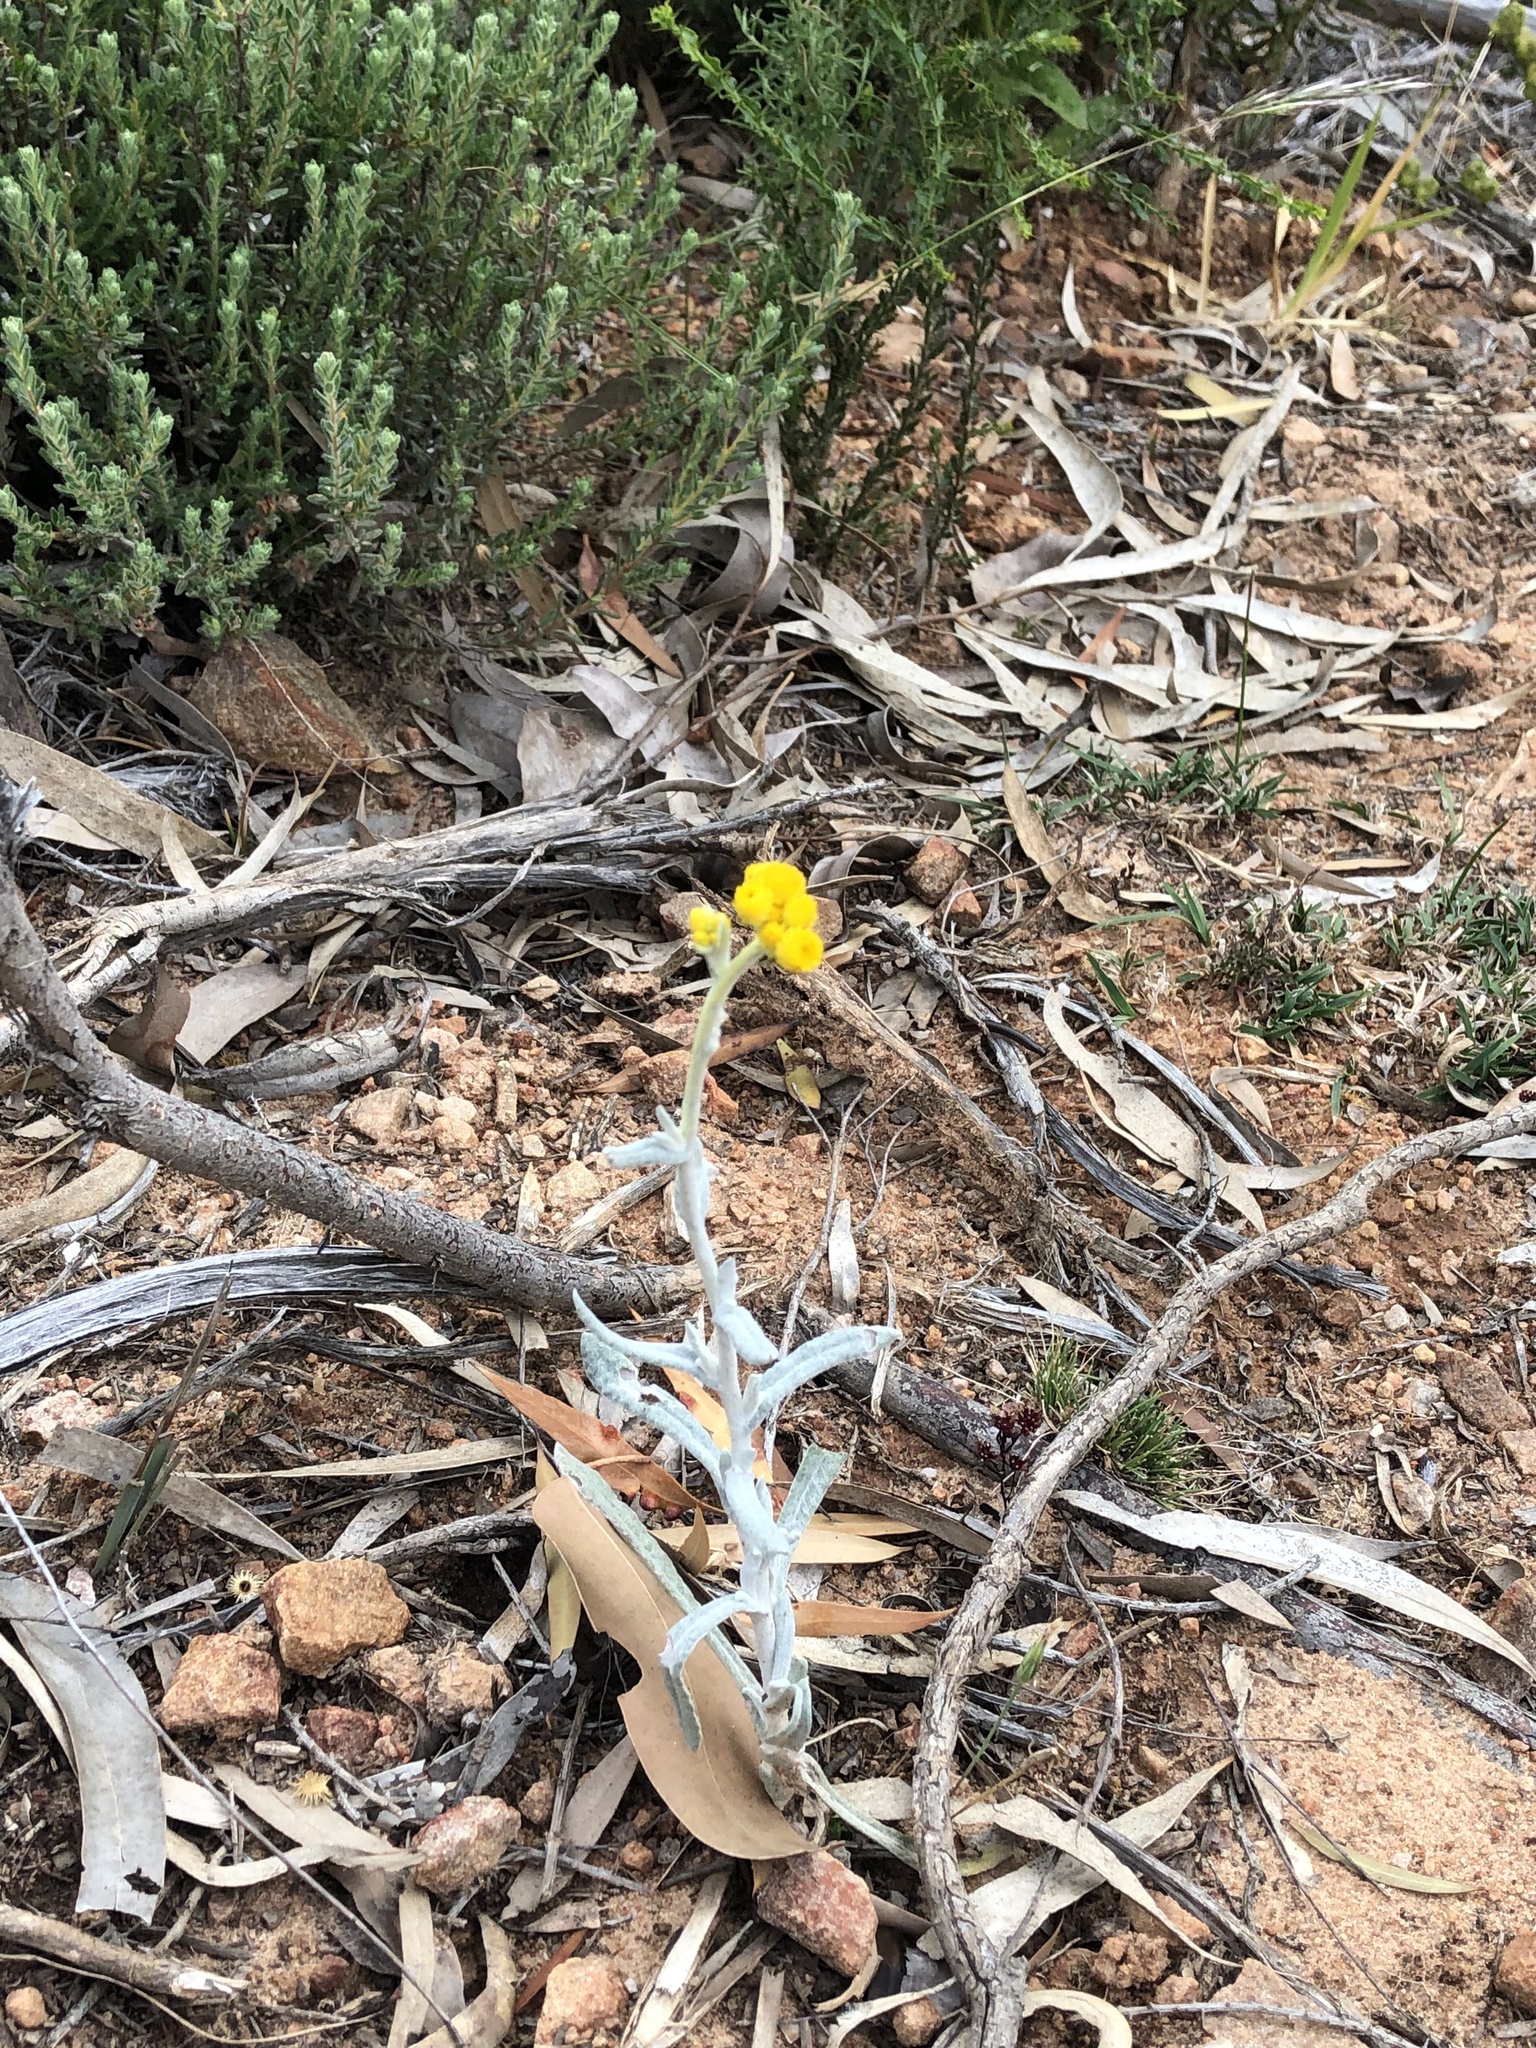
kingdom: Plantae
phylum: Tracheophyta
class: Magnoliopsida
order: Asterales
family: Asteraceae
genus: Chrysocephalum
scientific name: Chrysocephalum apiculatum
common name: Common everlasting
